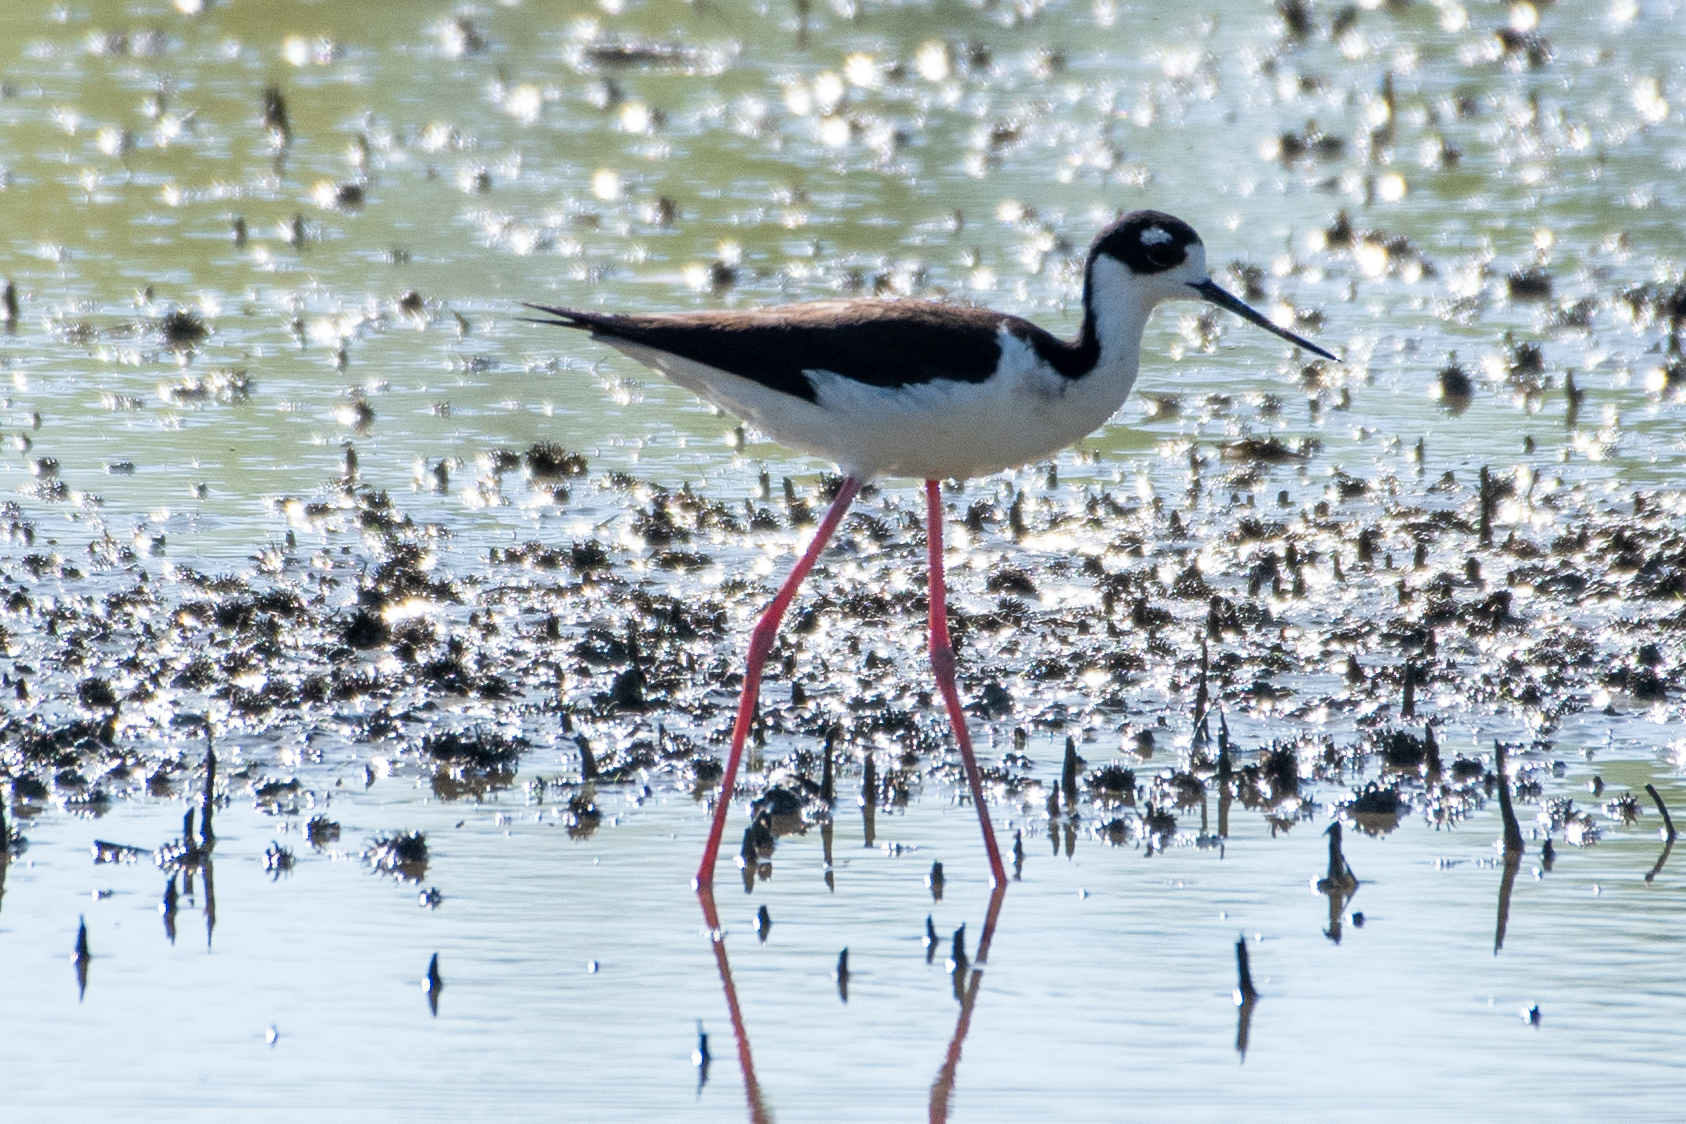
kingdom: Animalia
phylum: Chordata
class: Aves
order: Charadriiformes
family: Recurvirostridae
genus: Himantopus
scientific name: Himantopus mexicanus
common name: Black-necked stilt
